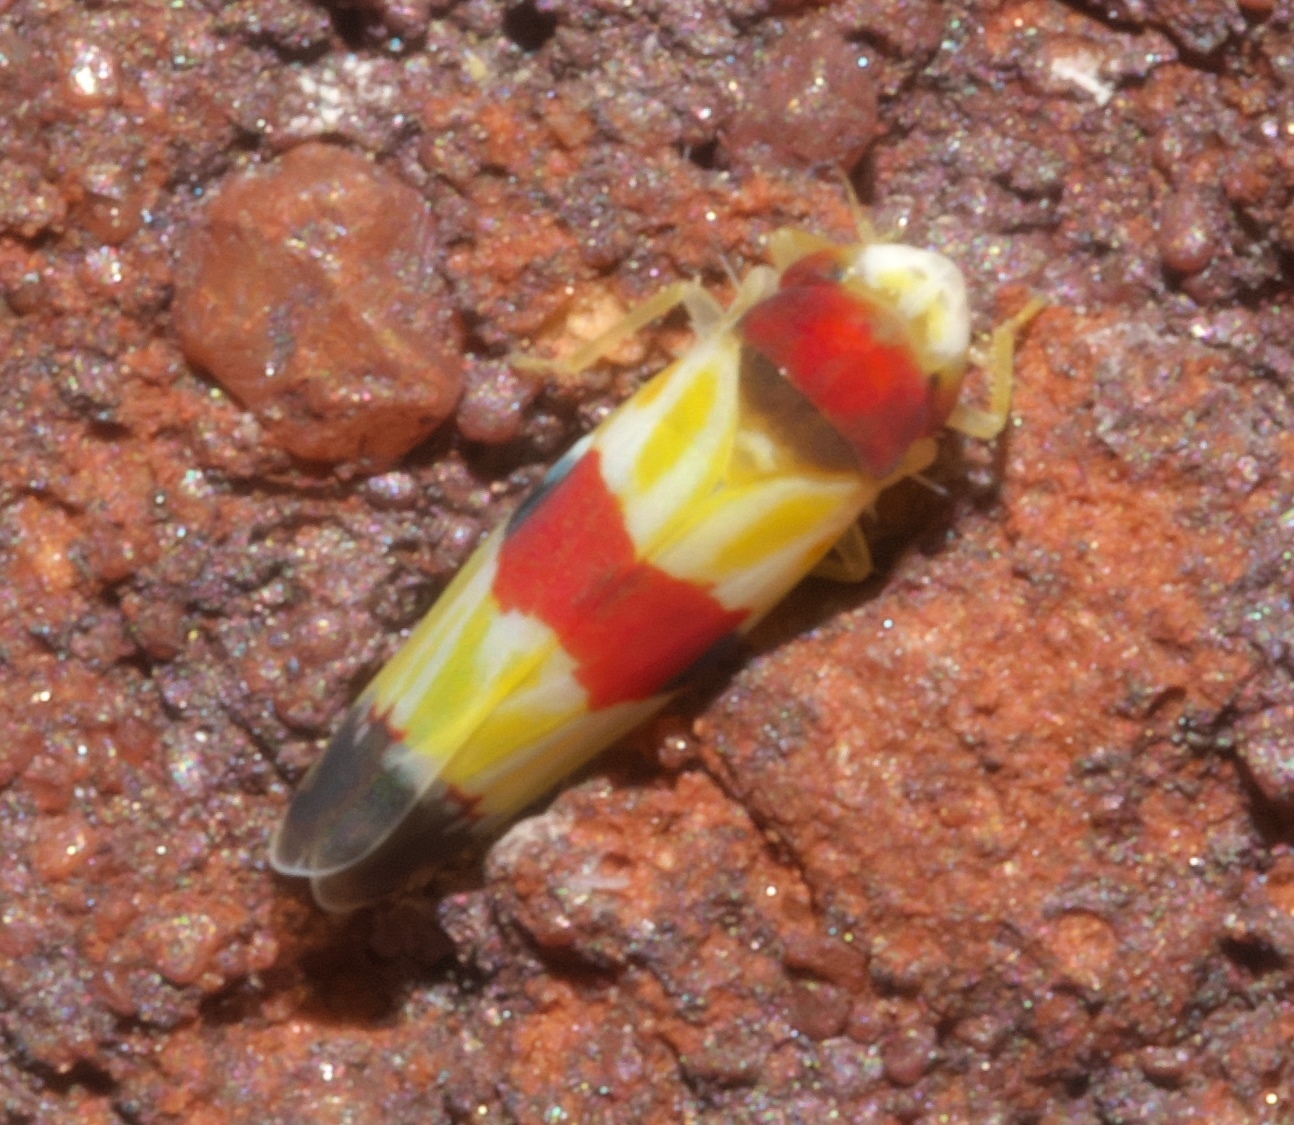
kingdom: Animalia
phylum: Arthropoda
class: Insecta
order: Hemiptera
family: Cicadellidae
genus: Erythroneura
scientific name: Erythroneura diva
